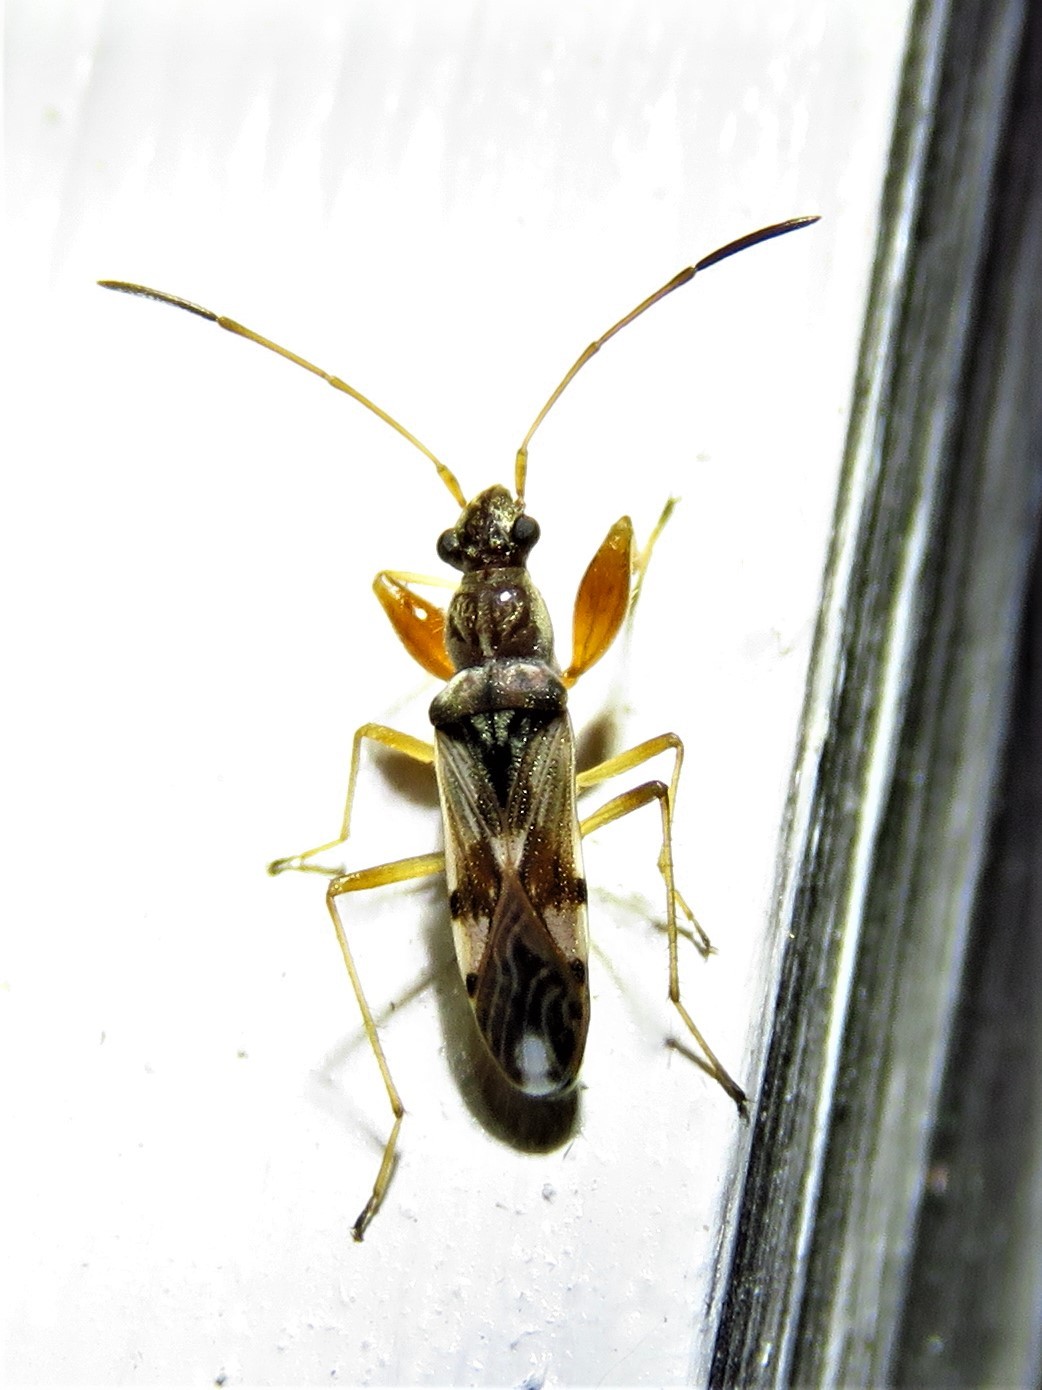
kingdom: Animalia
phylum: Arthropoda
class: Insecta
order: Hemiptera
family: Rhyparochromidae
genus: Neopamera
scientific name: Neopamera bilobata
